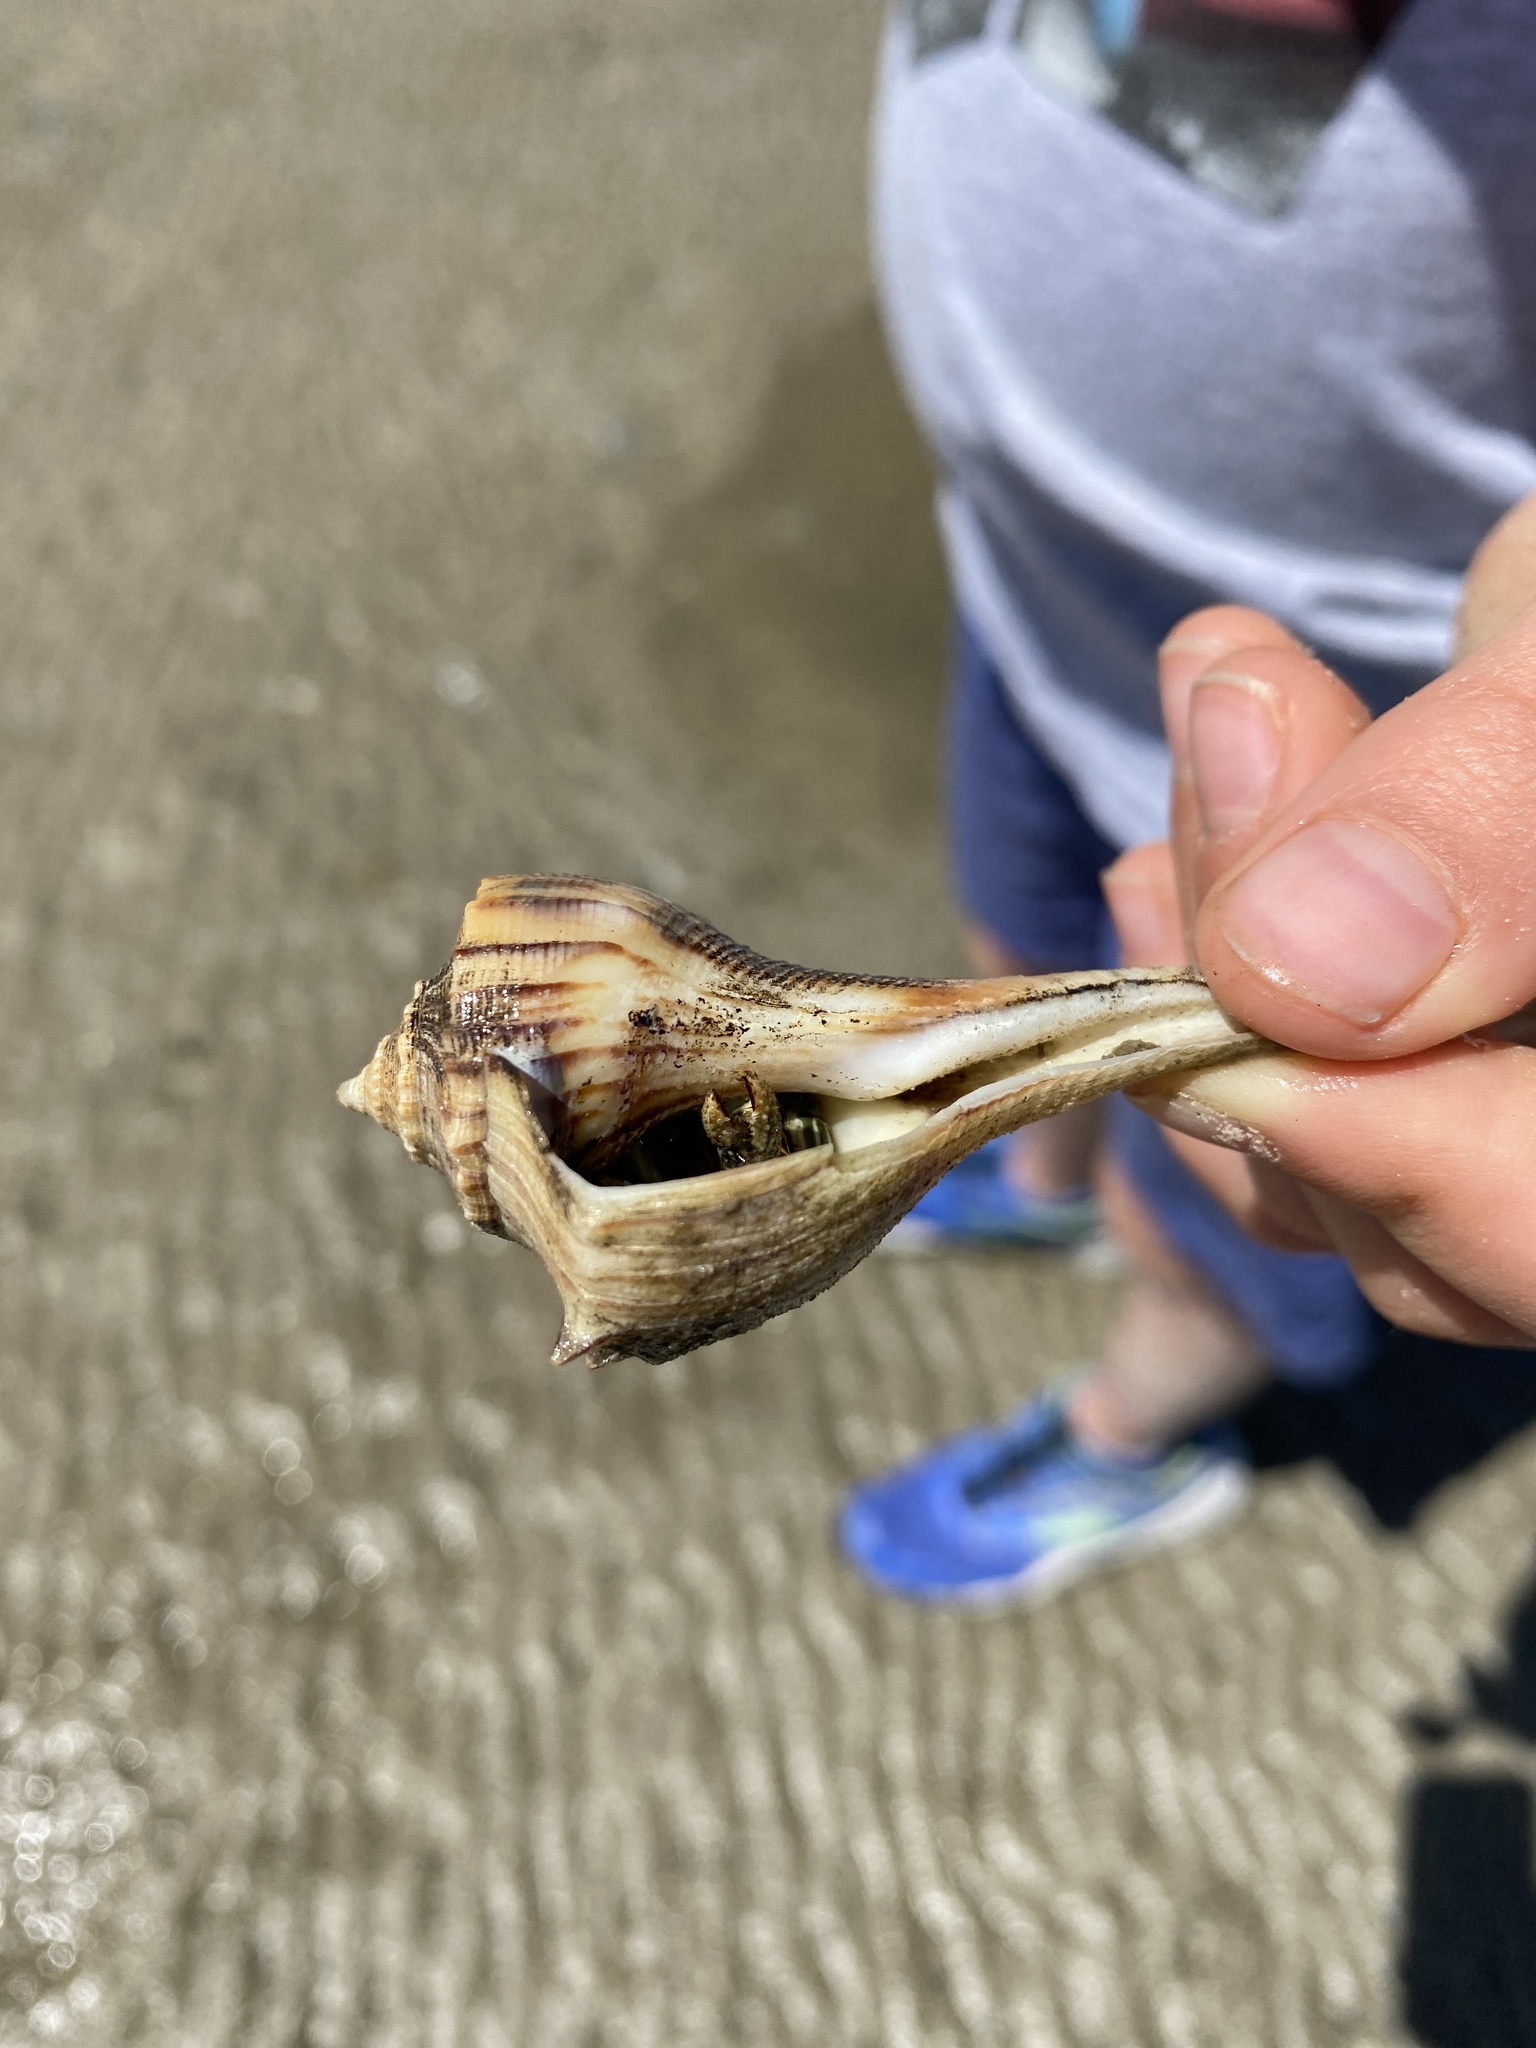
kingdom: Animalia
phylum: Arthropoda
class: Malacostraca
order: Decapoda
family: Diogenidae
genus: Clibanarius
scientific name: Clibanarius vittatus
